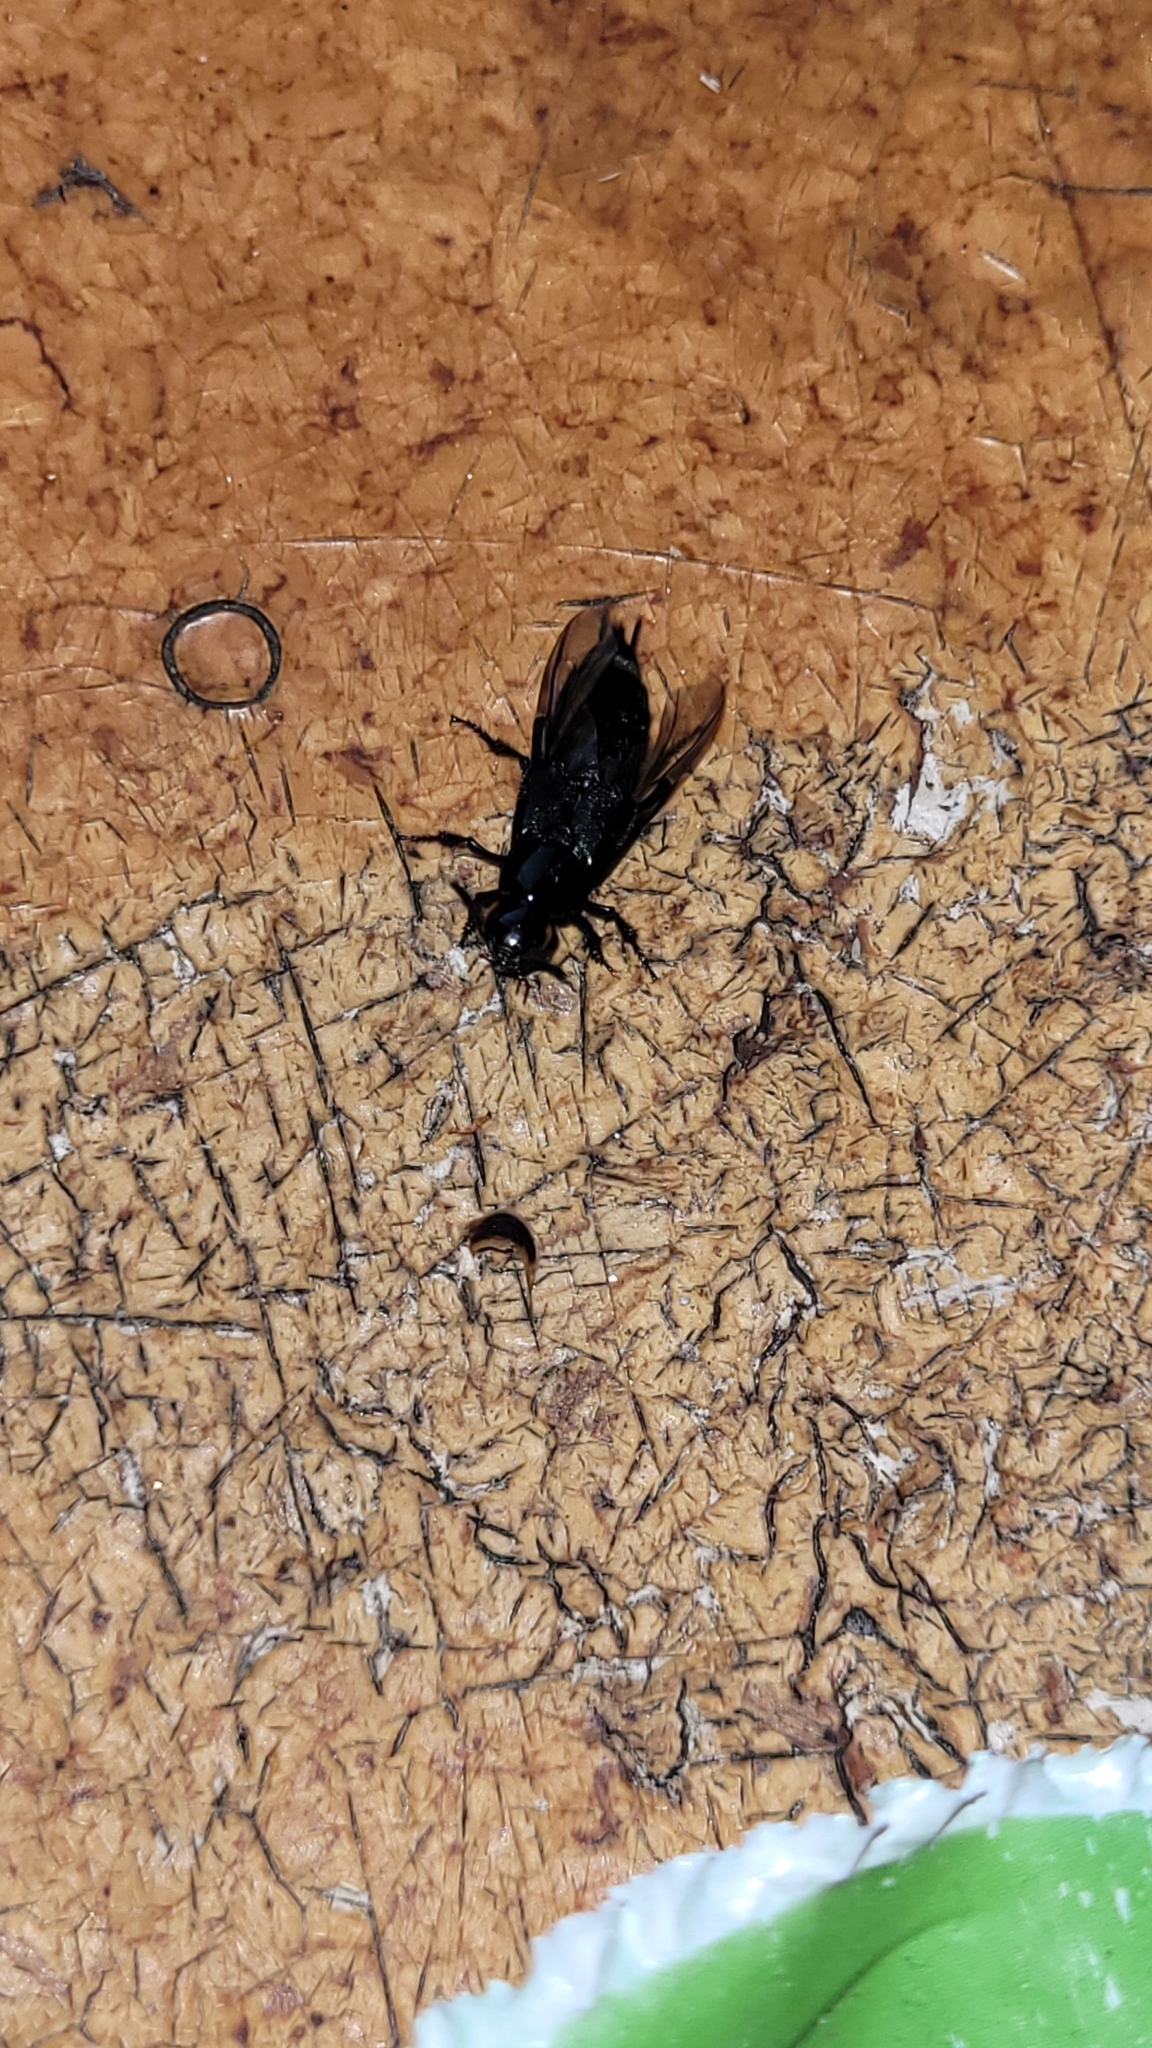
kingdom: Animalia
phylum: Arthropoda
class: Insecta
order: Coleoptera
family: Staphylinidae
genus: Creophilus
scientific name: Creophilus oculatus
